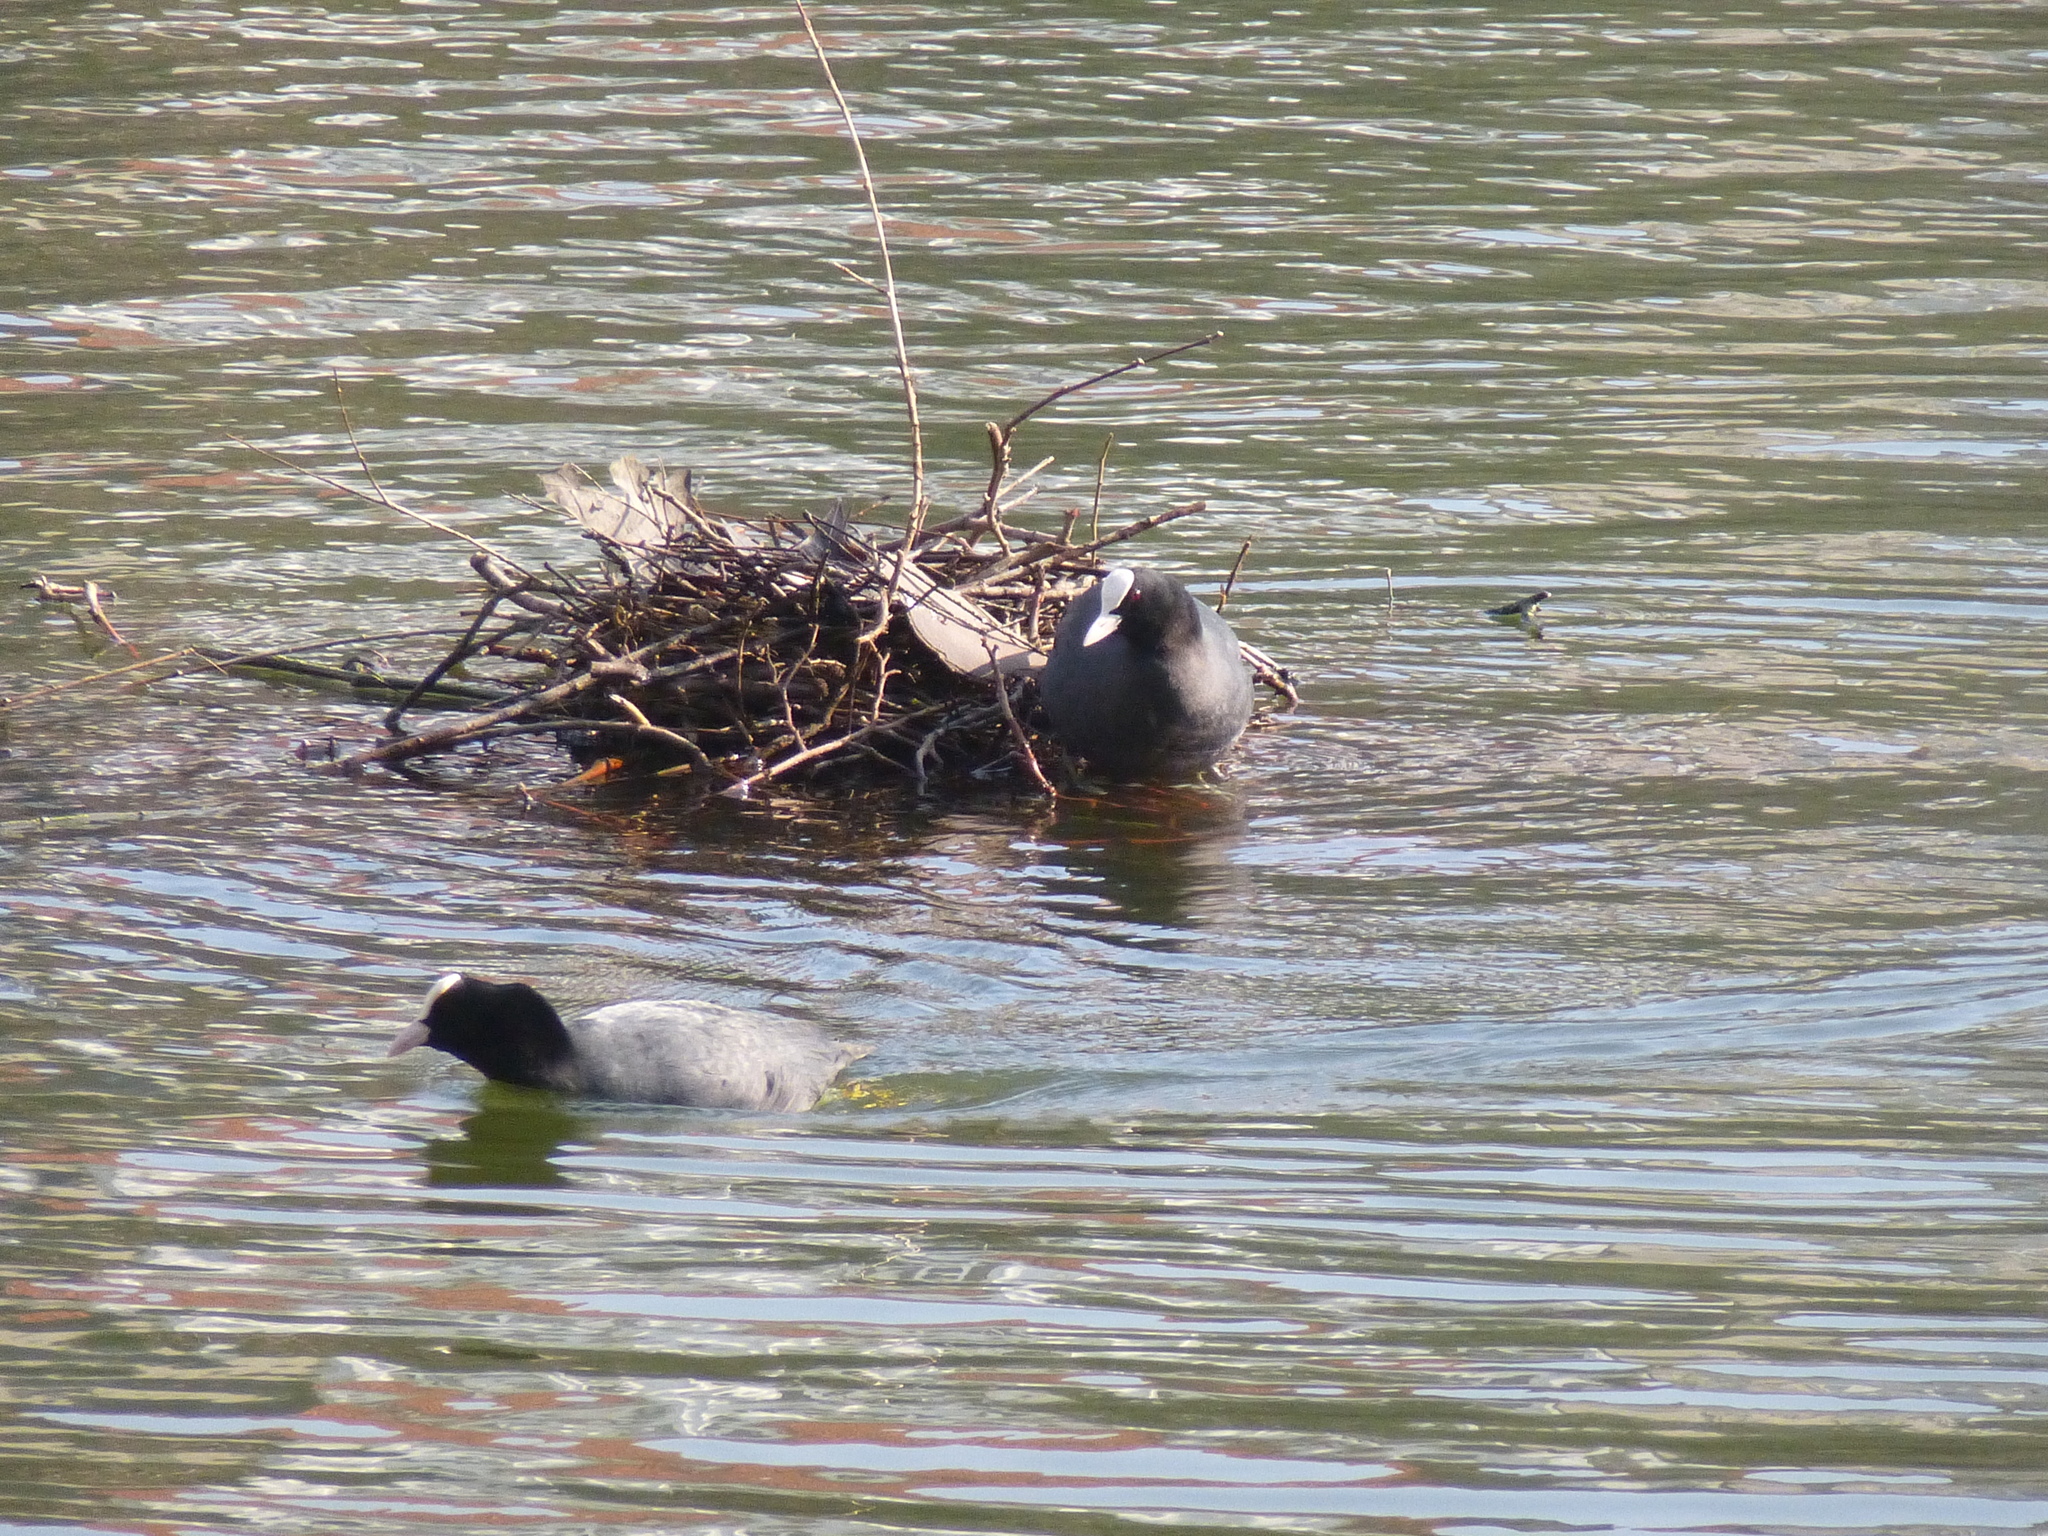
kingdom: Animalia
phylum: Chordata
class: Aves
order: Gruiformes
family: Rallidae
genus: Fulica
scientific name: Fulica atra
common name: Eurasian coot
